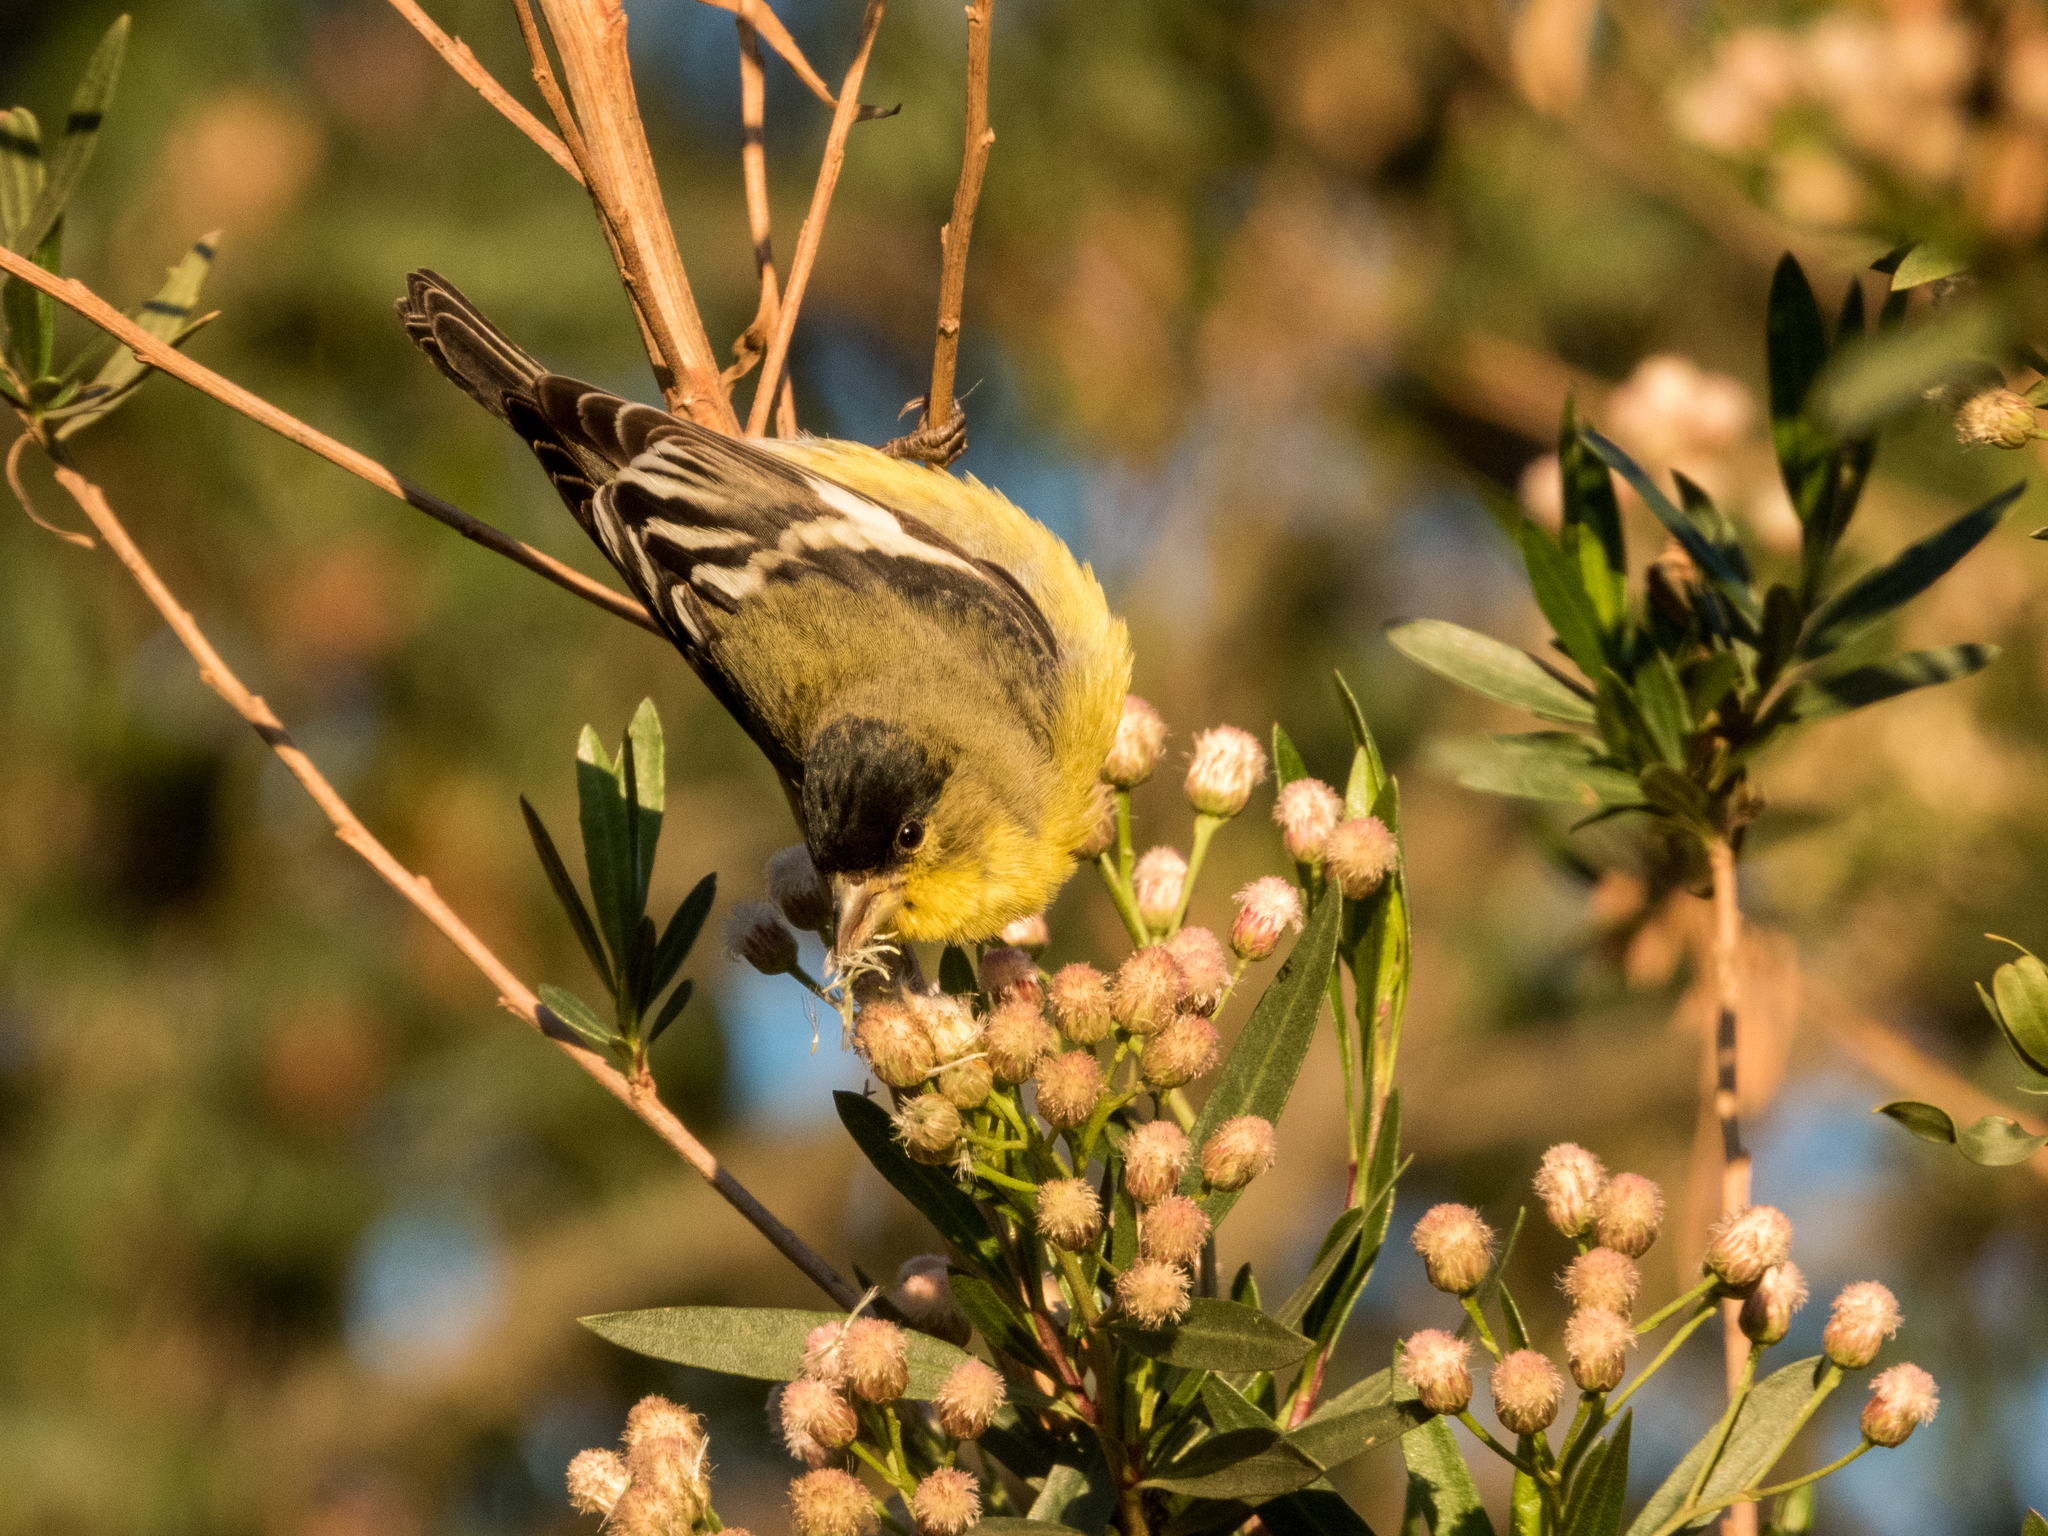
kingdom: Animalia
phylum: Chordata
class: Aves
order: Passeriformes
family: Fringillidae
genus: Spinus
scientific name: Spinus psaltria
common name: Lesser goldfinch
